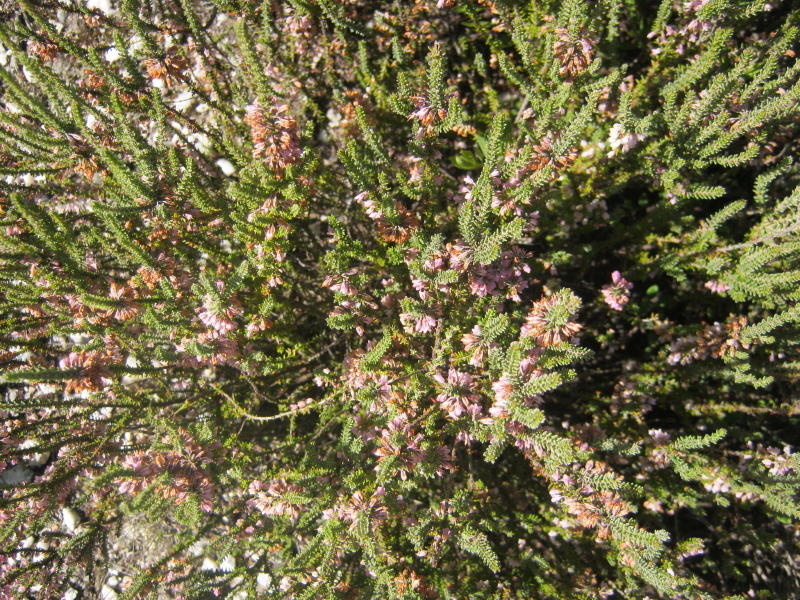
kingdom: Plantae
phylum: Tracheophyta
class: Magnoliopsida
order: Ericales
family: Ericaceae
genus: Erica
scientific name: Erica deflexa
